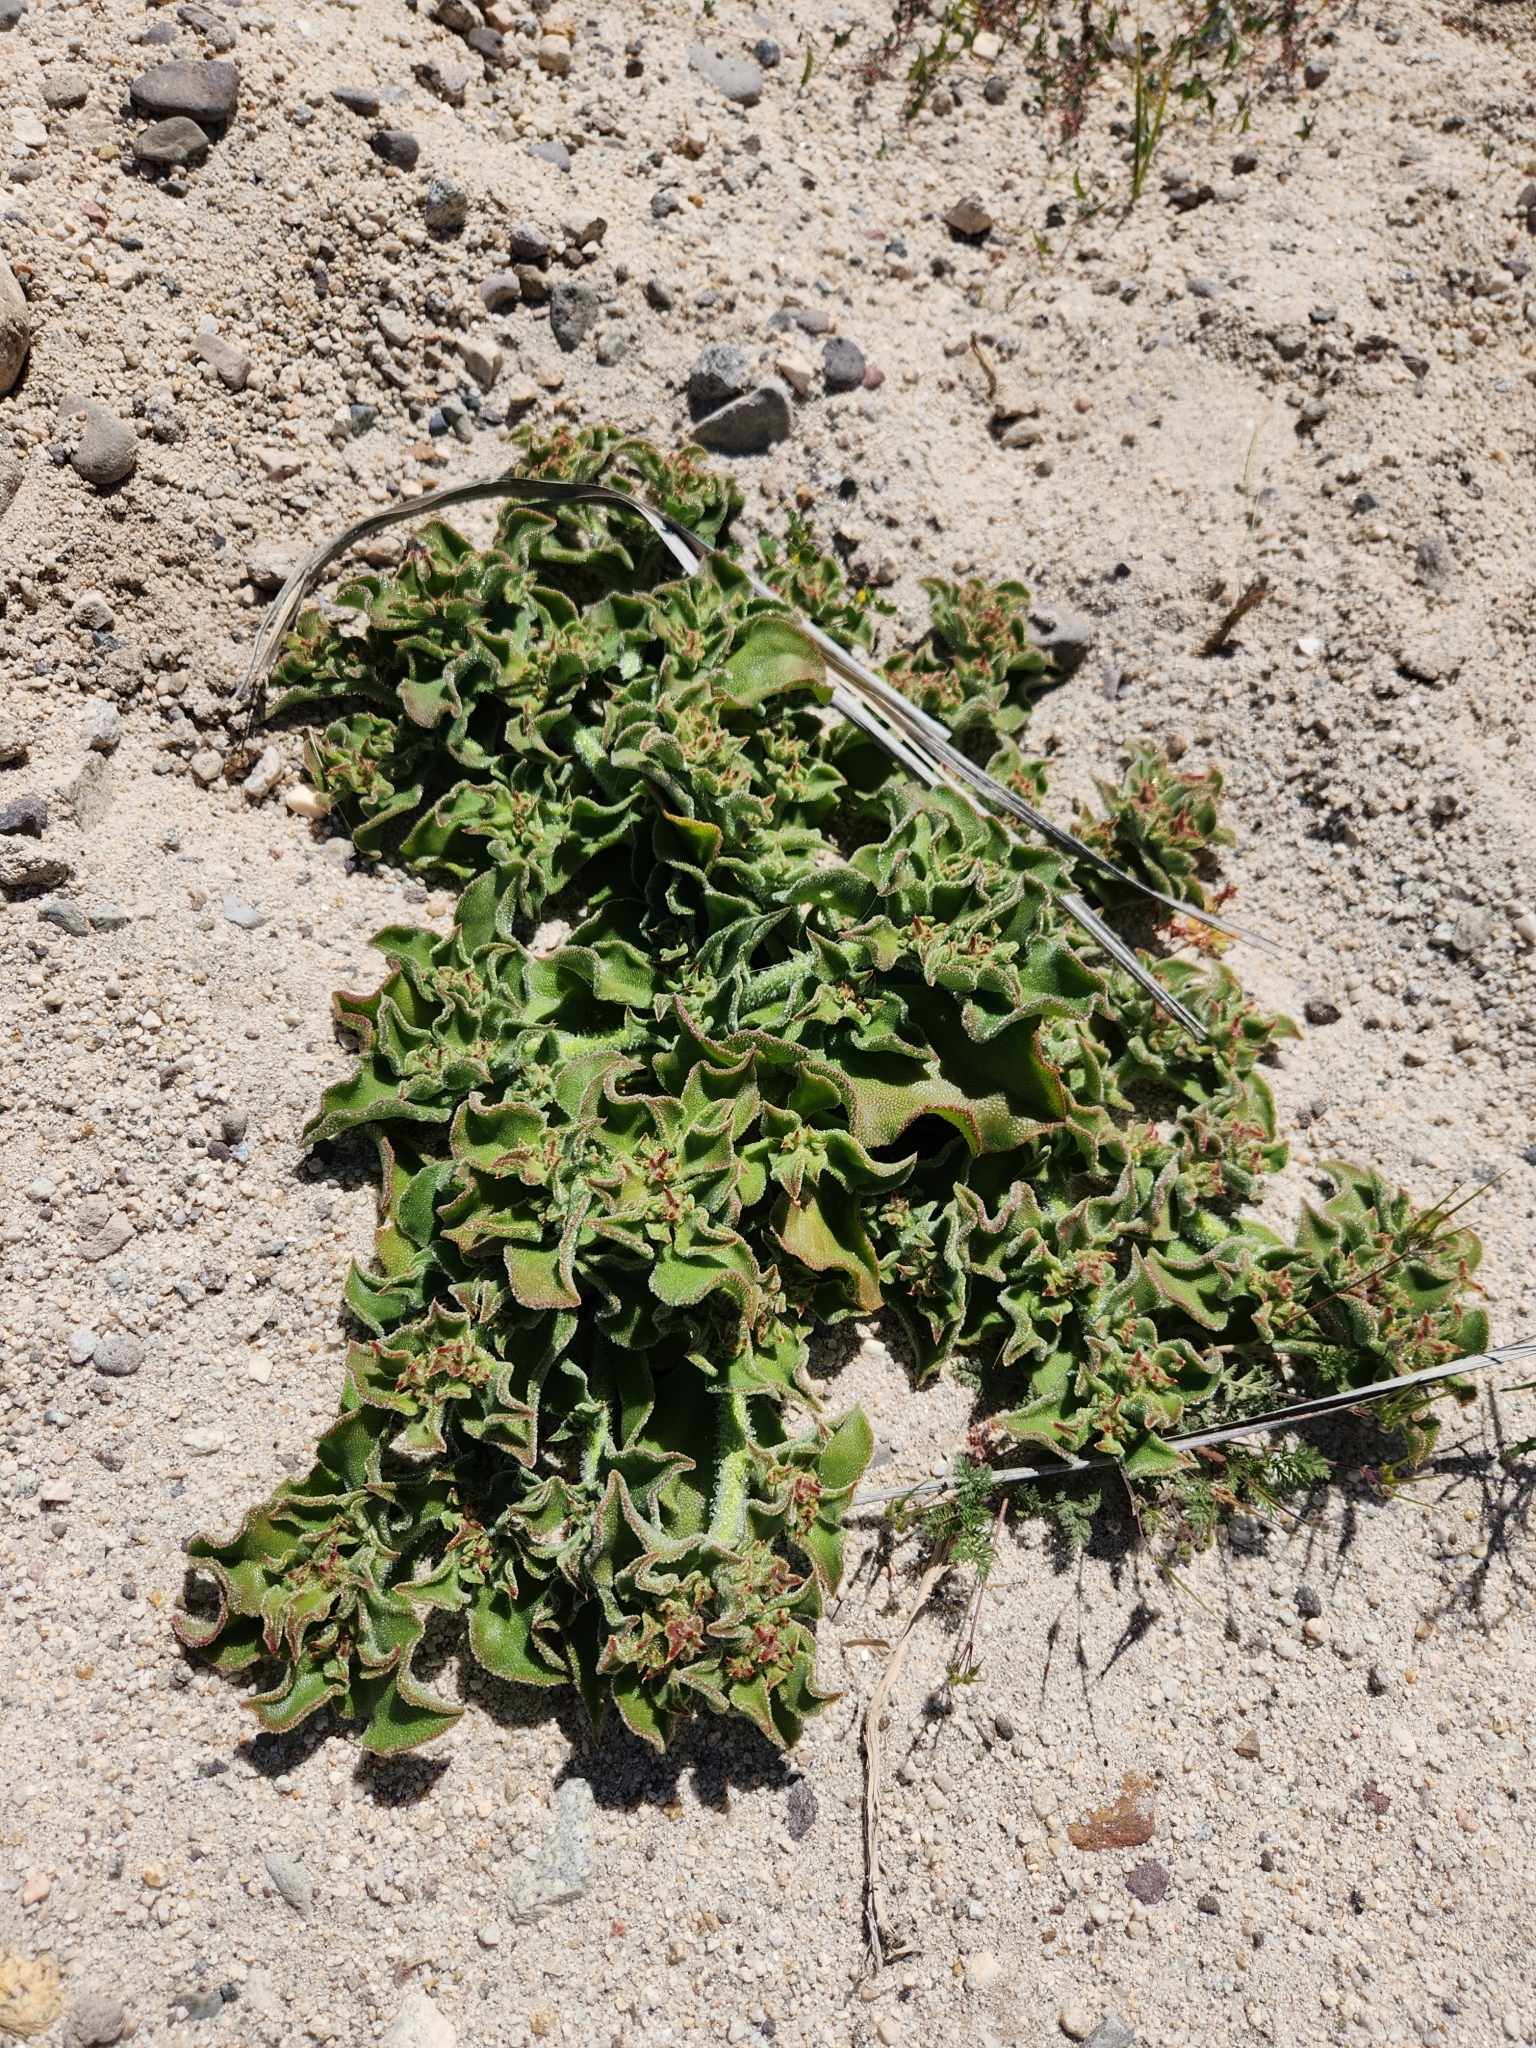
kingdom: Plantae
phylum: Tracheophyta
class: Magnoliopsida
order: Caryophyllales
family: Aizoaceae
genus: Mesembryanthemum
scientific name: Mesembryanthemum crystallinum
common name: Common iceplant
